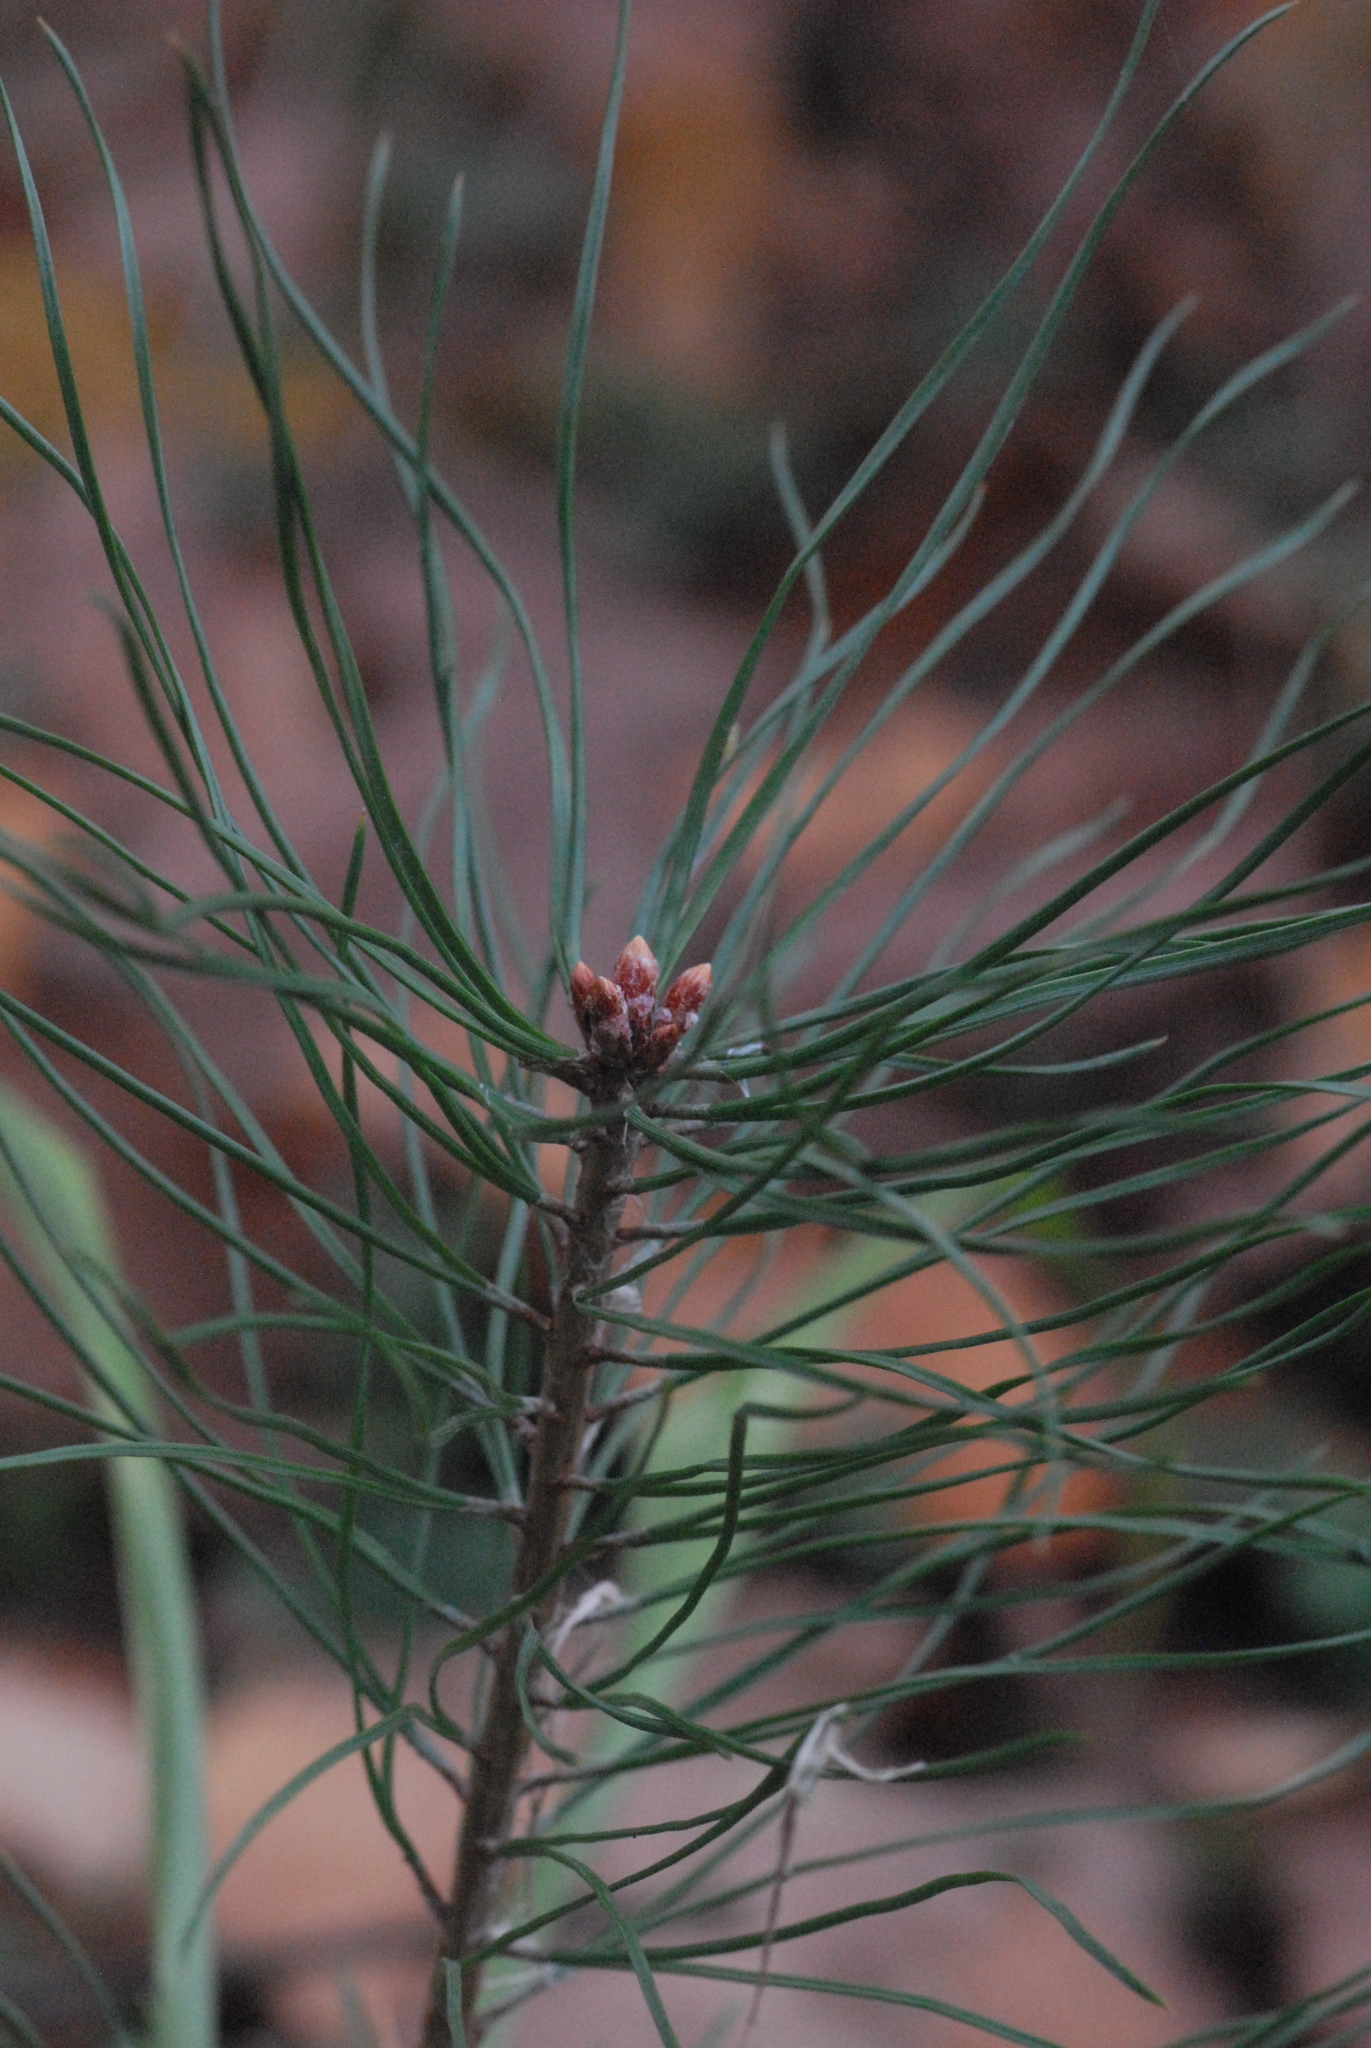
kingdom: Plantae
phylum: Tracheophyta
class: Pinopsida
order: Pinales
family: Pinaceae
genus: Pinus
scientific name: Pinus sylvestris
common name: Scots pine
